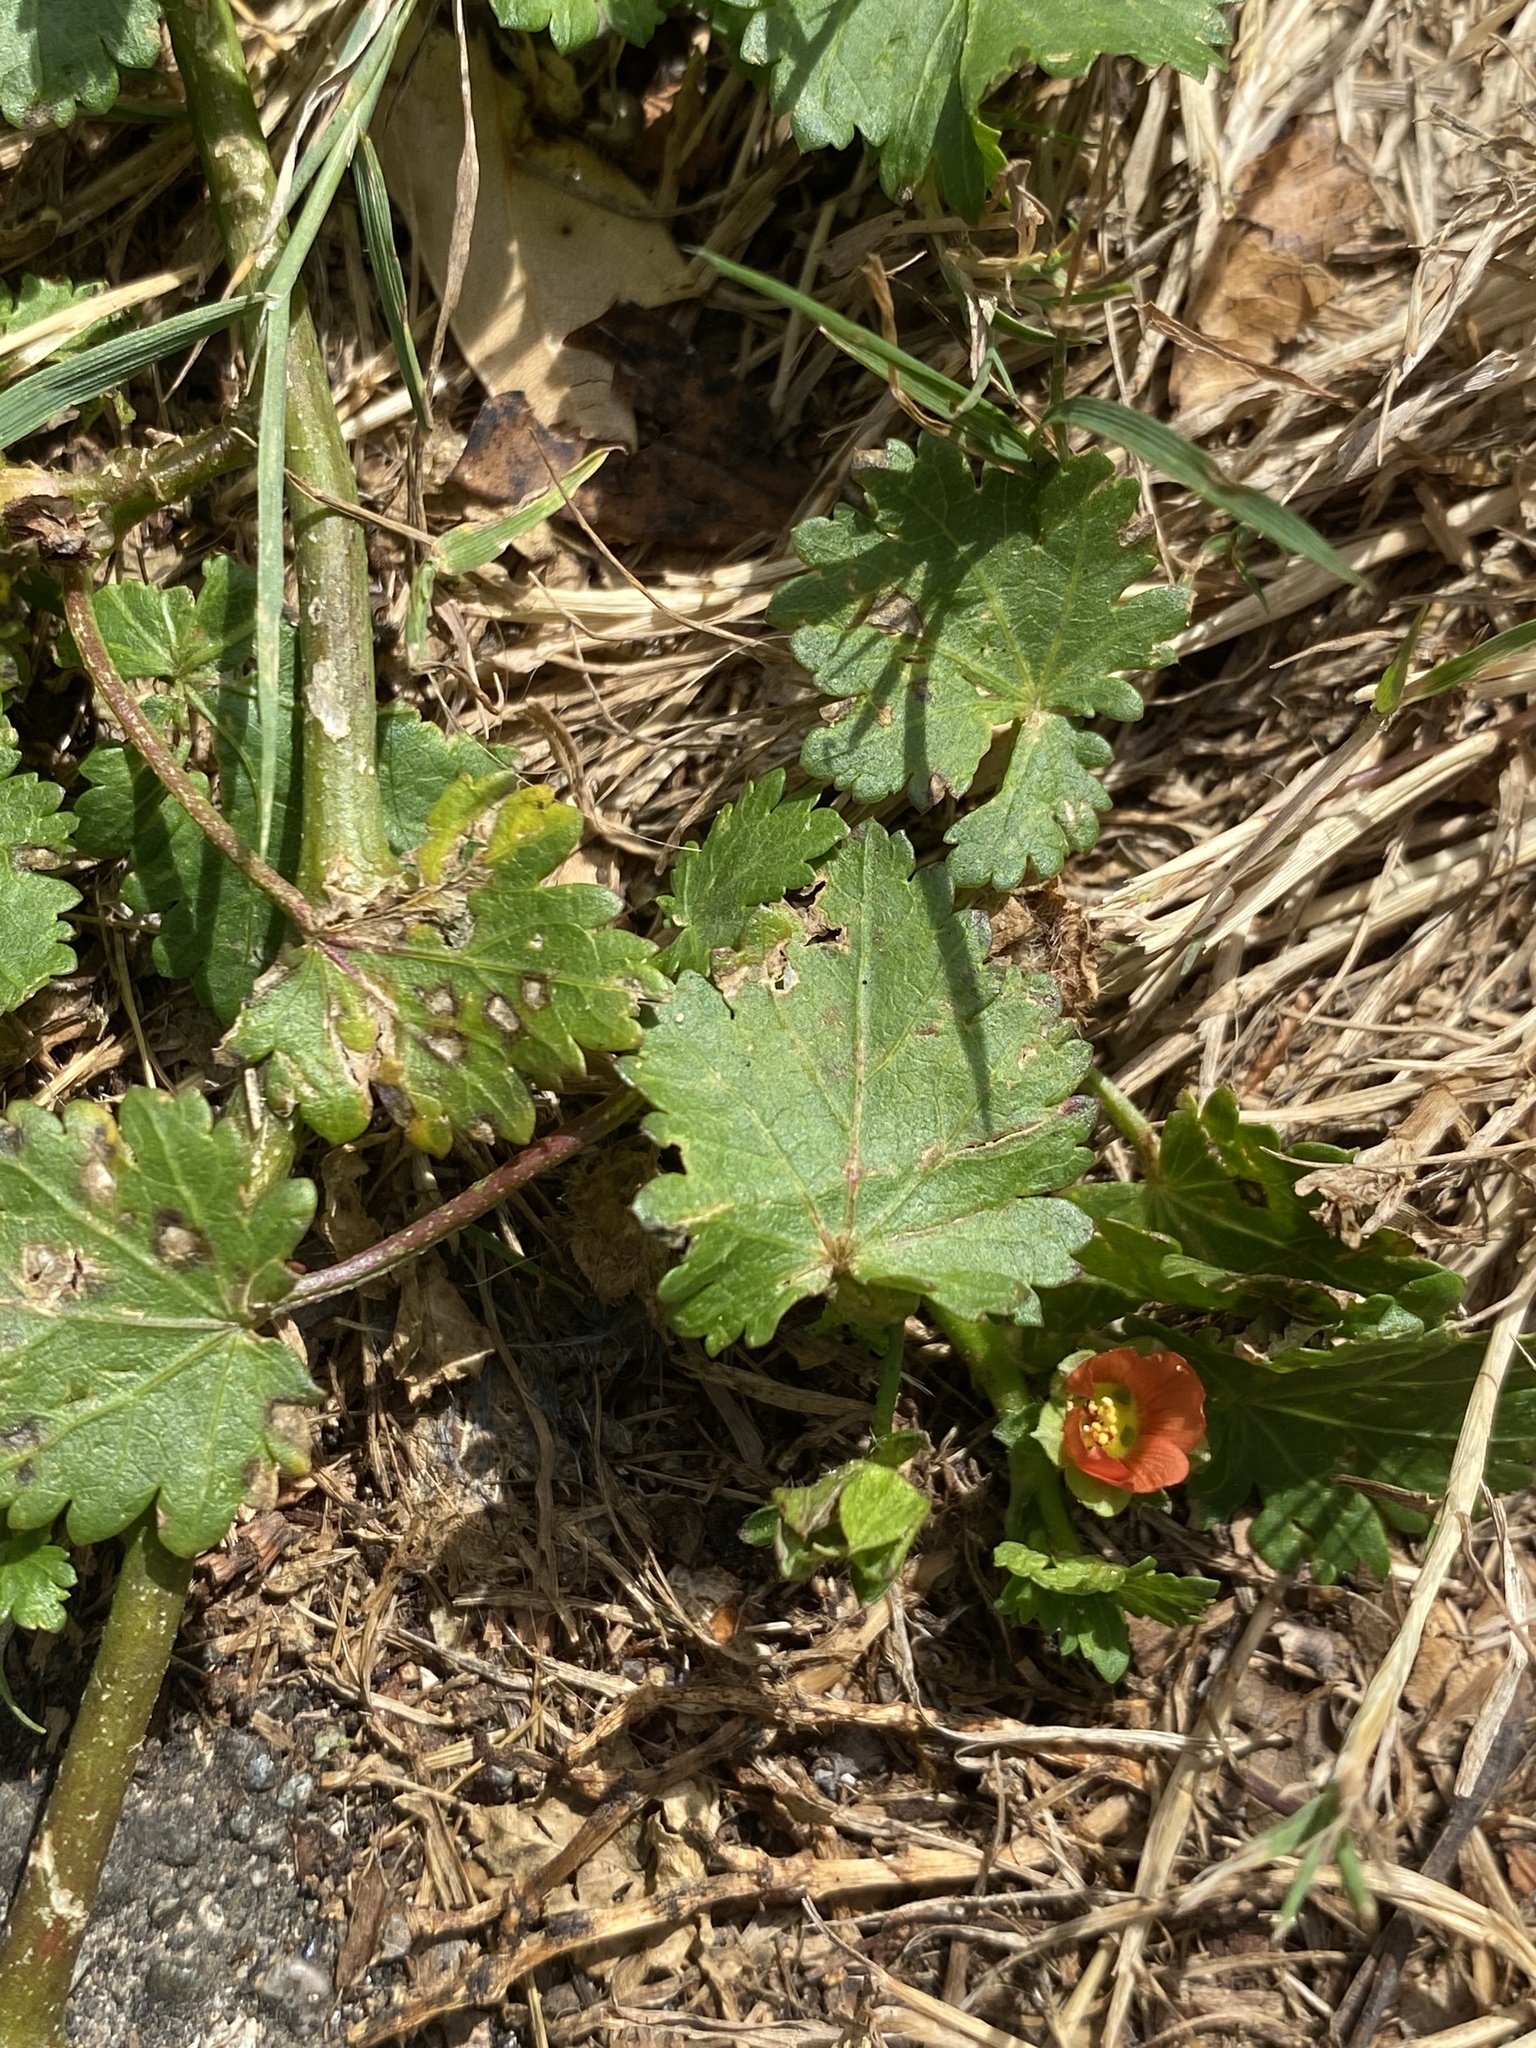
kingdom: Plantae
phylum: Tracheophyta
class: Magnoliopsida
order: Malvales
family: Malvaceae
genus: Modiola
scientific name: Modiola caroliniana
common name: Carolina bristlemallow
